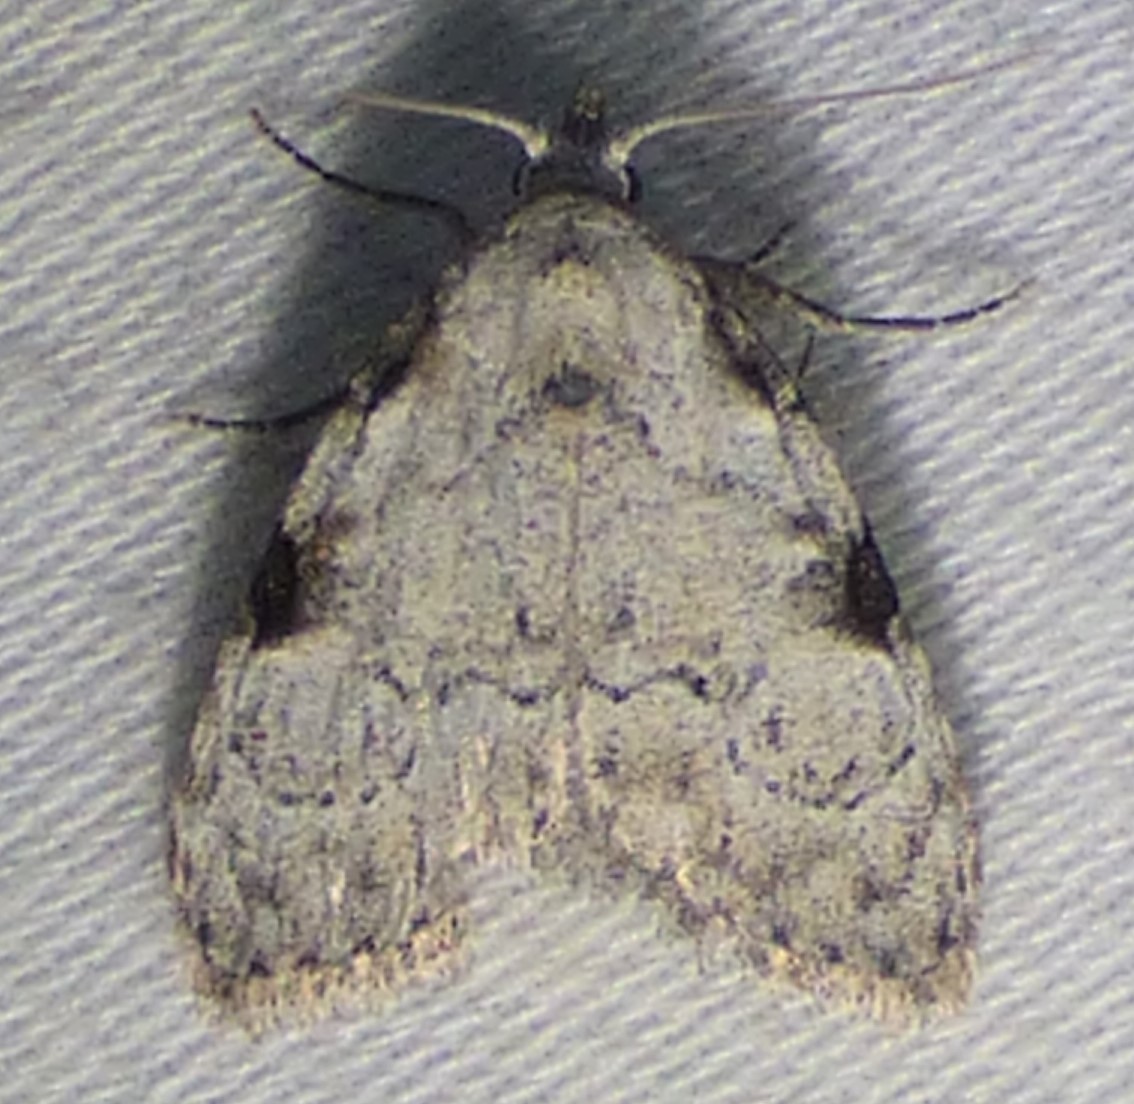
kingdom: Animalia
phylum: Arthropoda
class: Insecta
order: Lepidoptera
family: Nolidae
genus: Meganola
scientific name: Meganola minuscula
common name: Confused meganola moth
